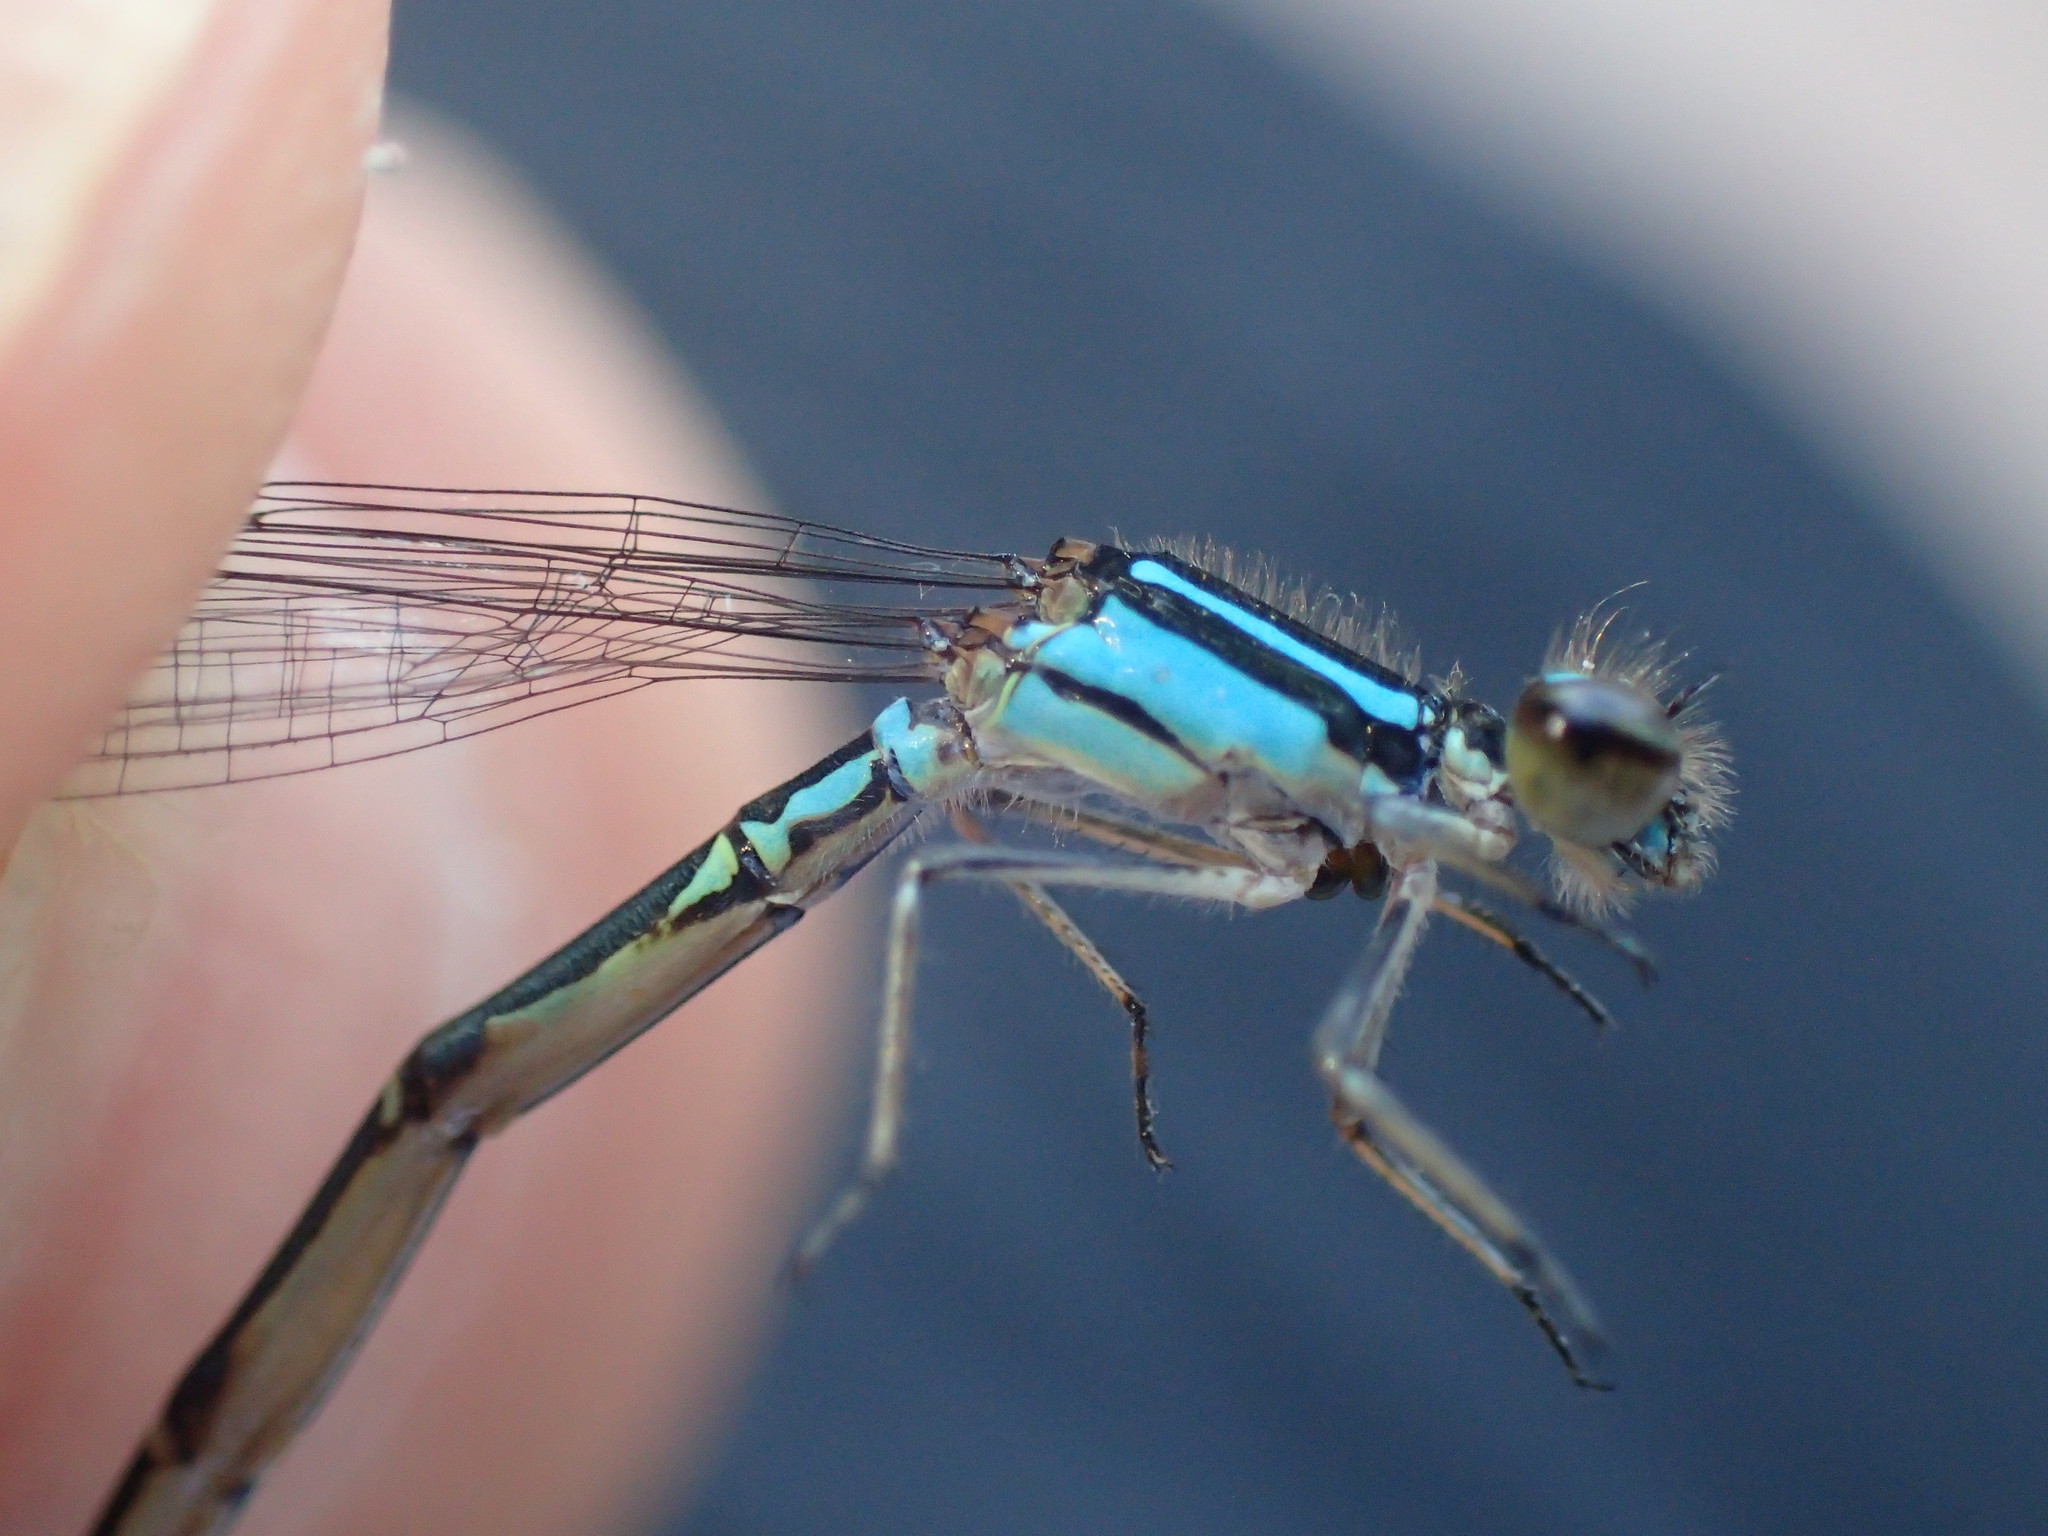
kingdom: Animalia
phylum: Arthropoda
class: Insecta
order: Odonata
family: Coenagrionidae
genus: Enallagma
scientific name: Enallagma geminatum
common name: Skimming bluet
